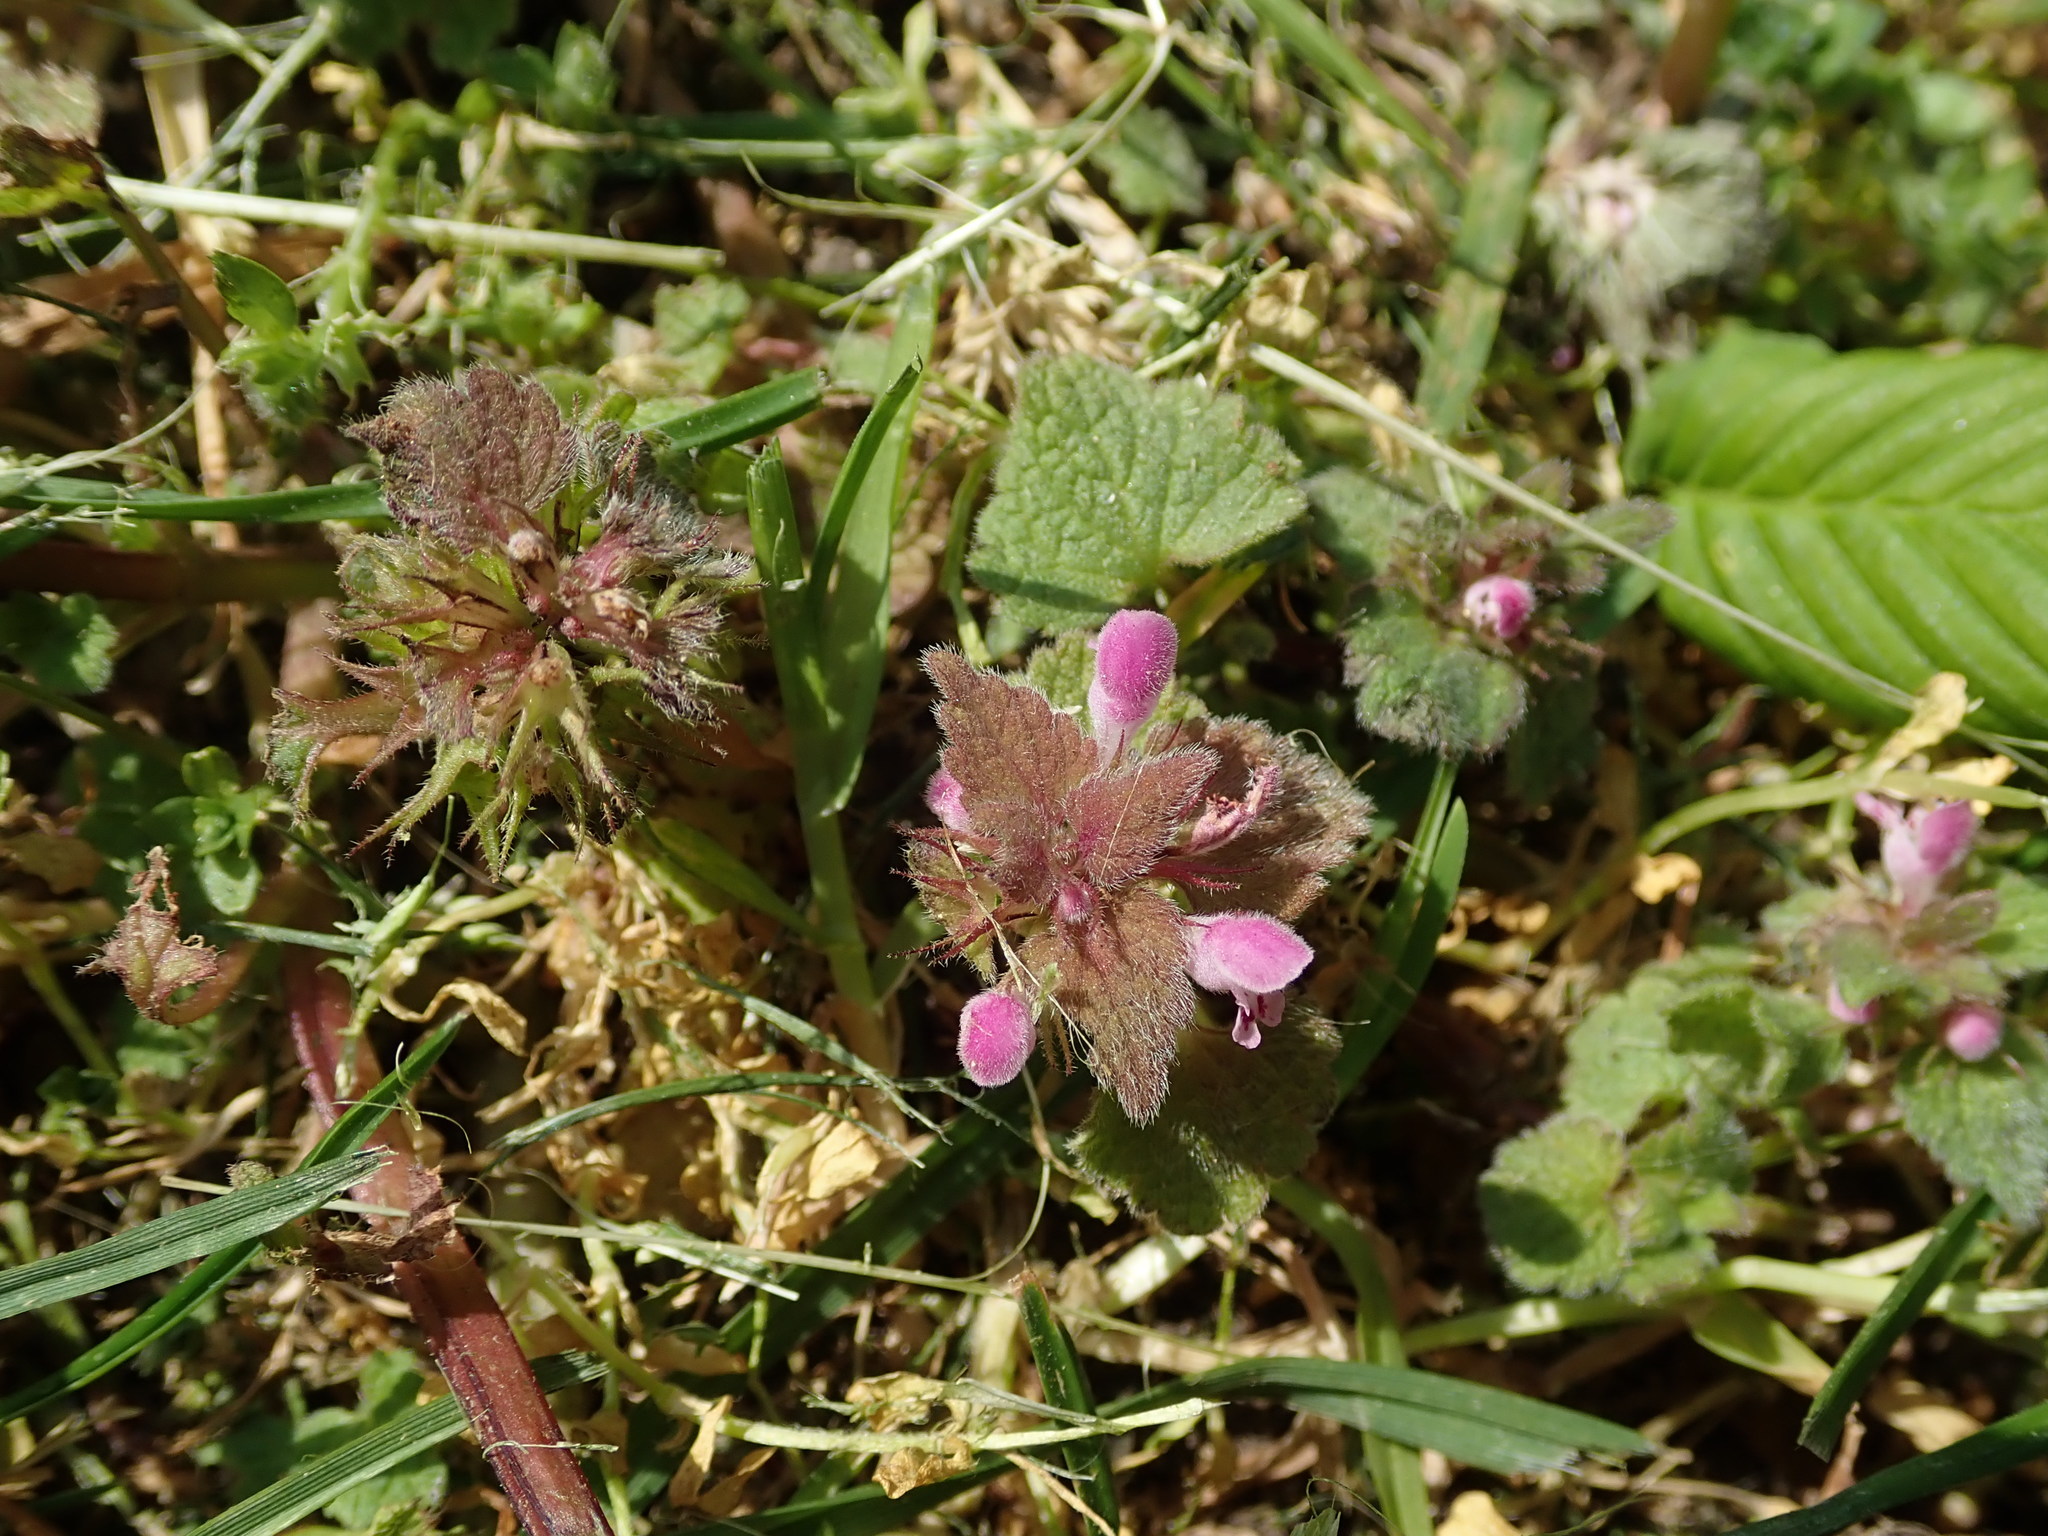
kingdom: Plantae
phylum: Tracheophyta
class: Magnoliopsida
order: Lamiales
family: Lamiaceae
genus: Lamium
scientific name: Lamium purpureum
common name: Red dead-nettle
